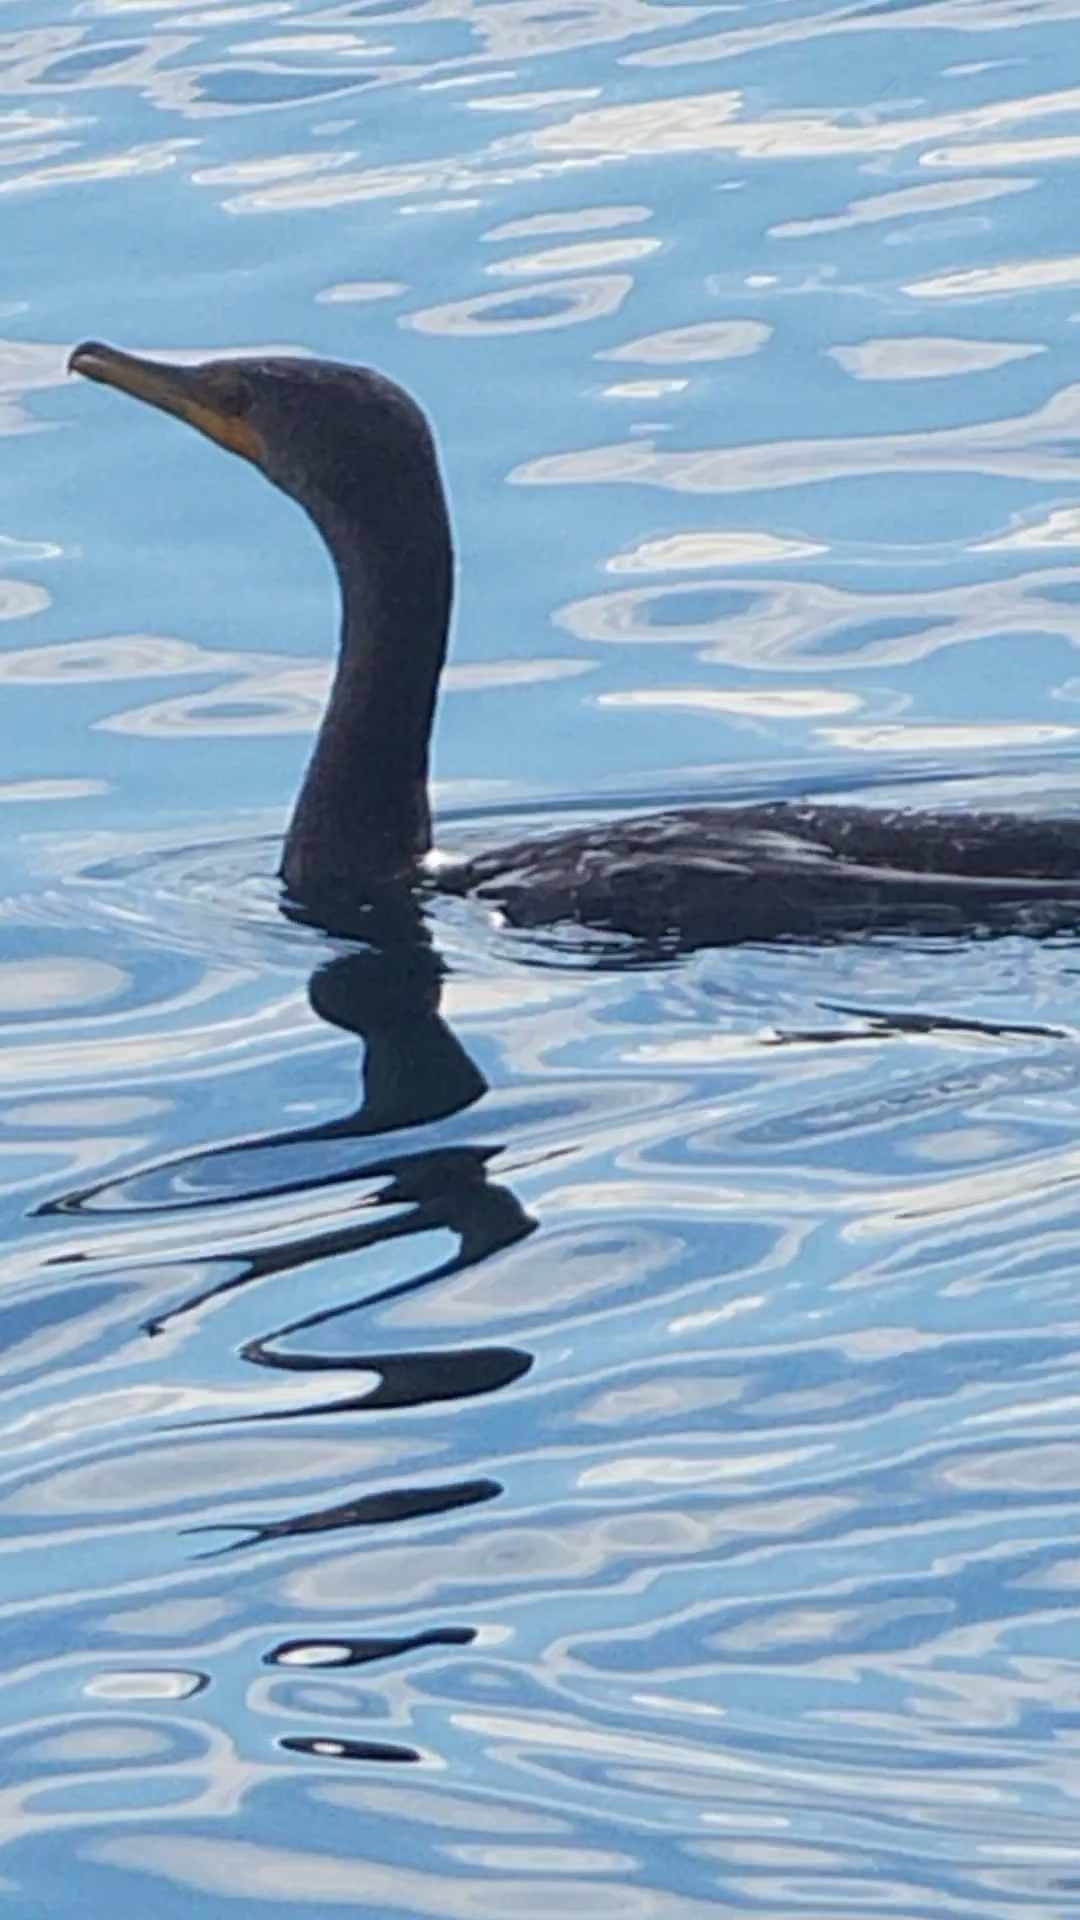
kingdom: Animalia
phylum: Chordata
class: Aves
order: Suliformes
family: Phalacrocoracidae
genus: Phalacrocorax
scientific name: Phalacrocorax auritus
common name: Double-crested cormorant
